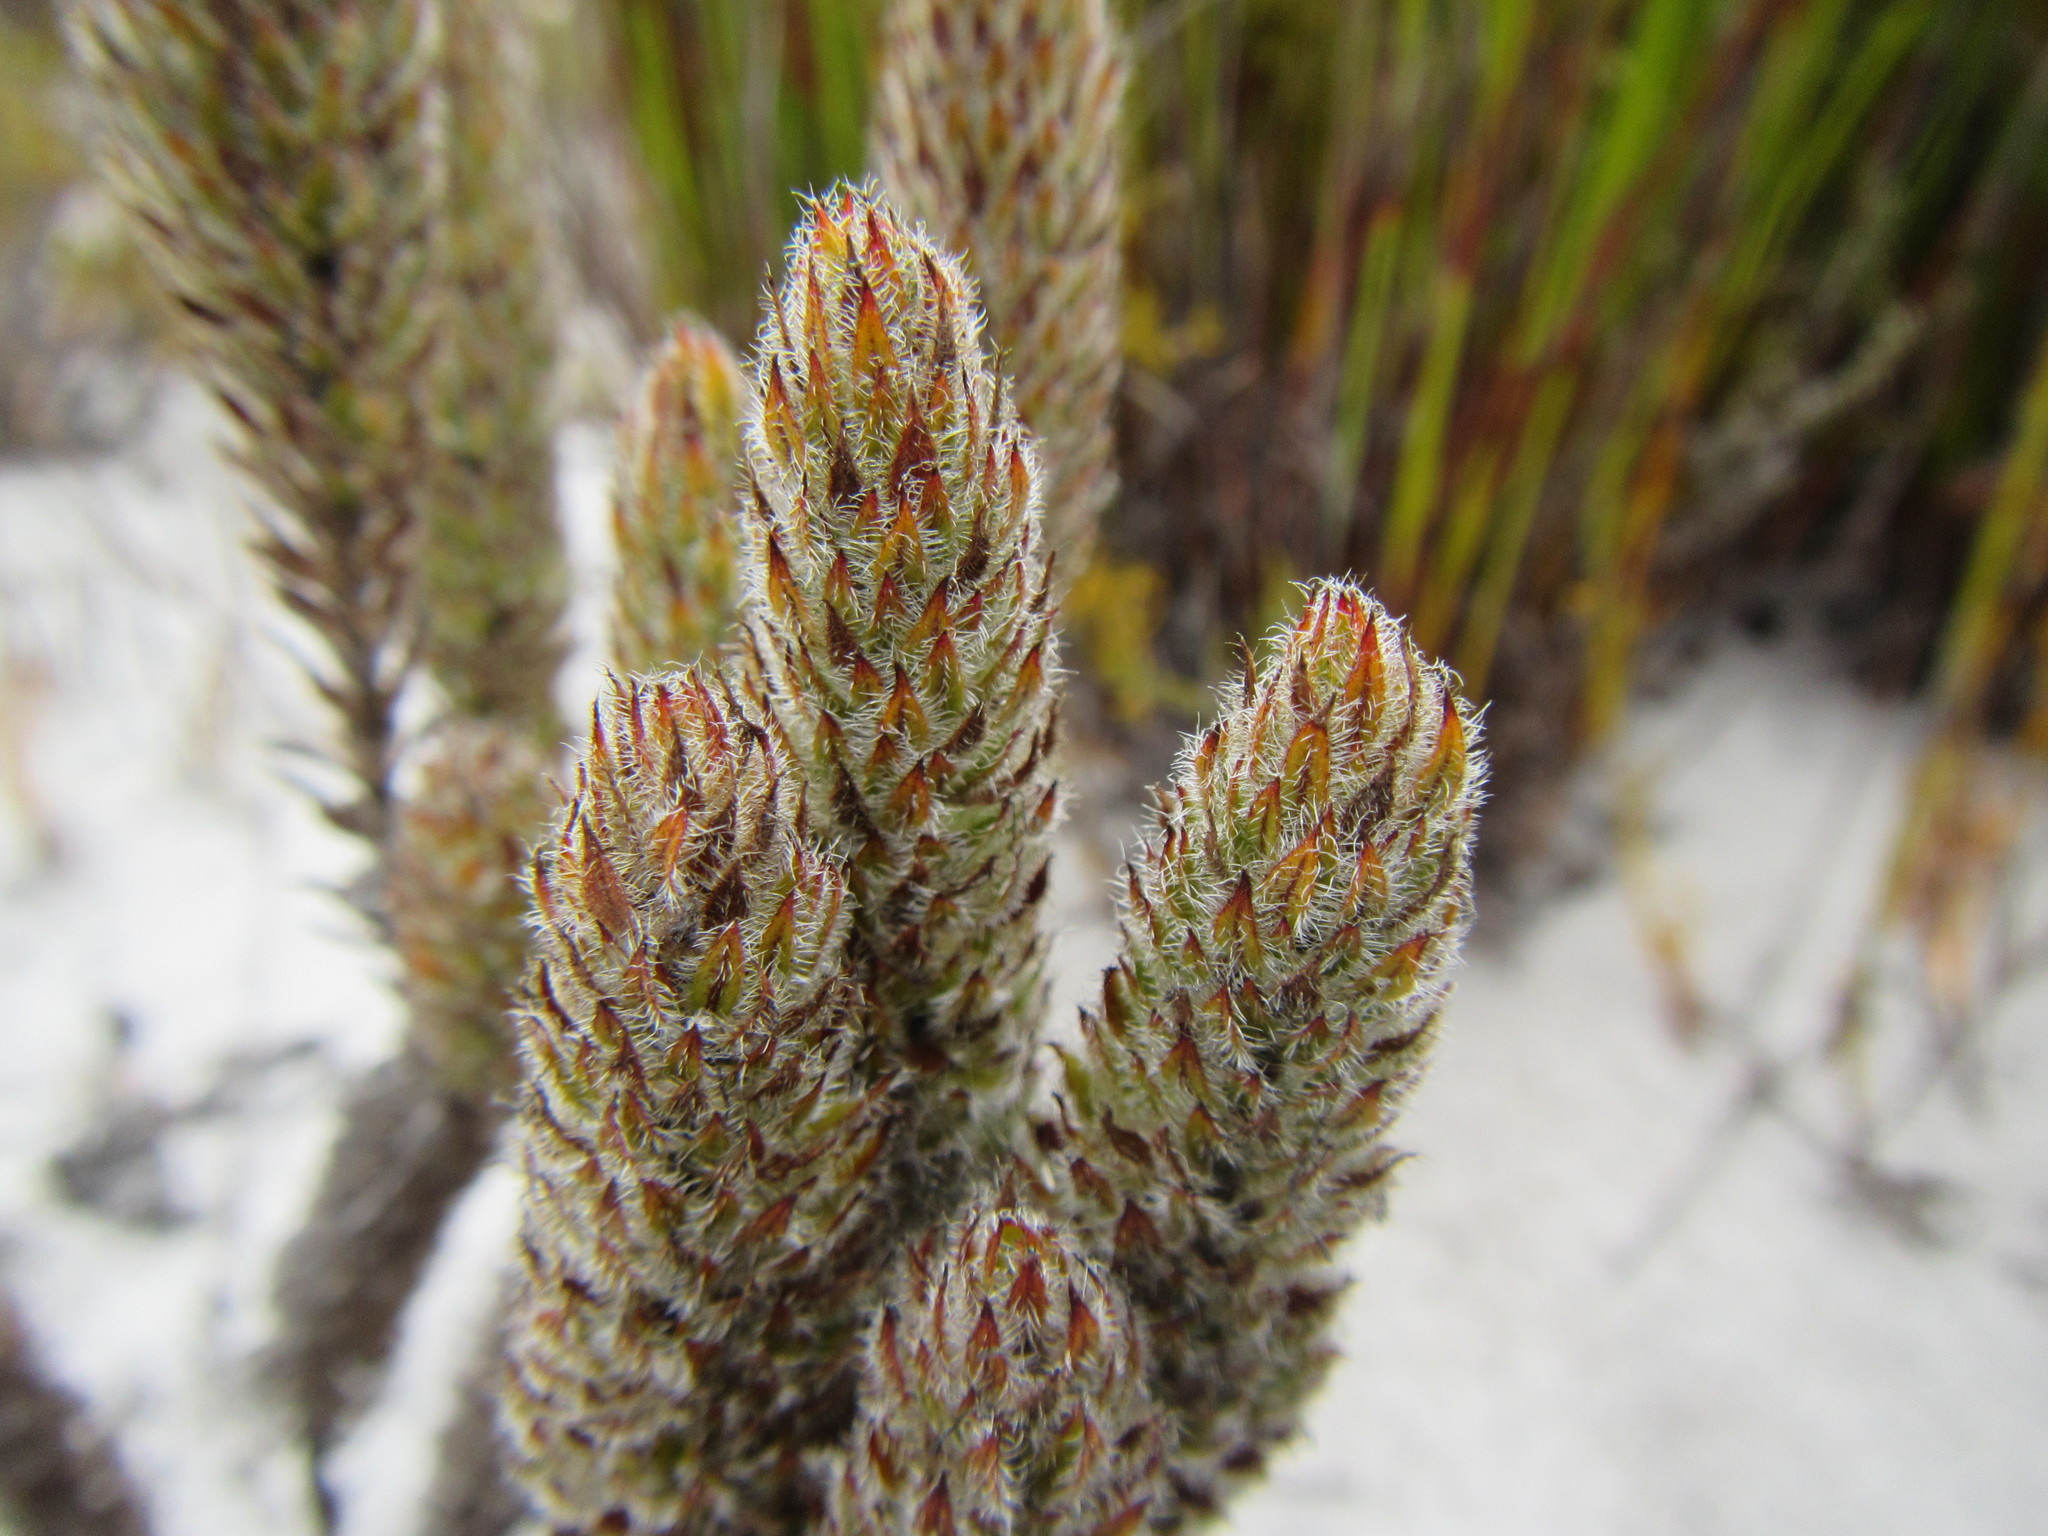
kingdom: Plantae
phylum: Tracheophyta
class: Magnoliopsida
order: Gentianales
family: Rubiaceae
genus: Anthospermum
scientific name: Anthospermum bergianum
